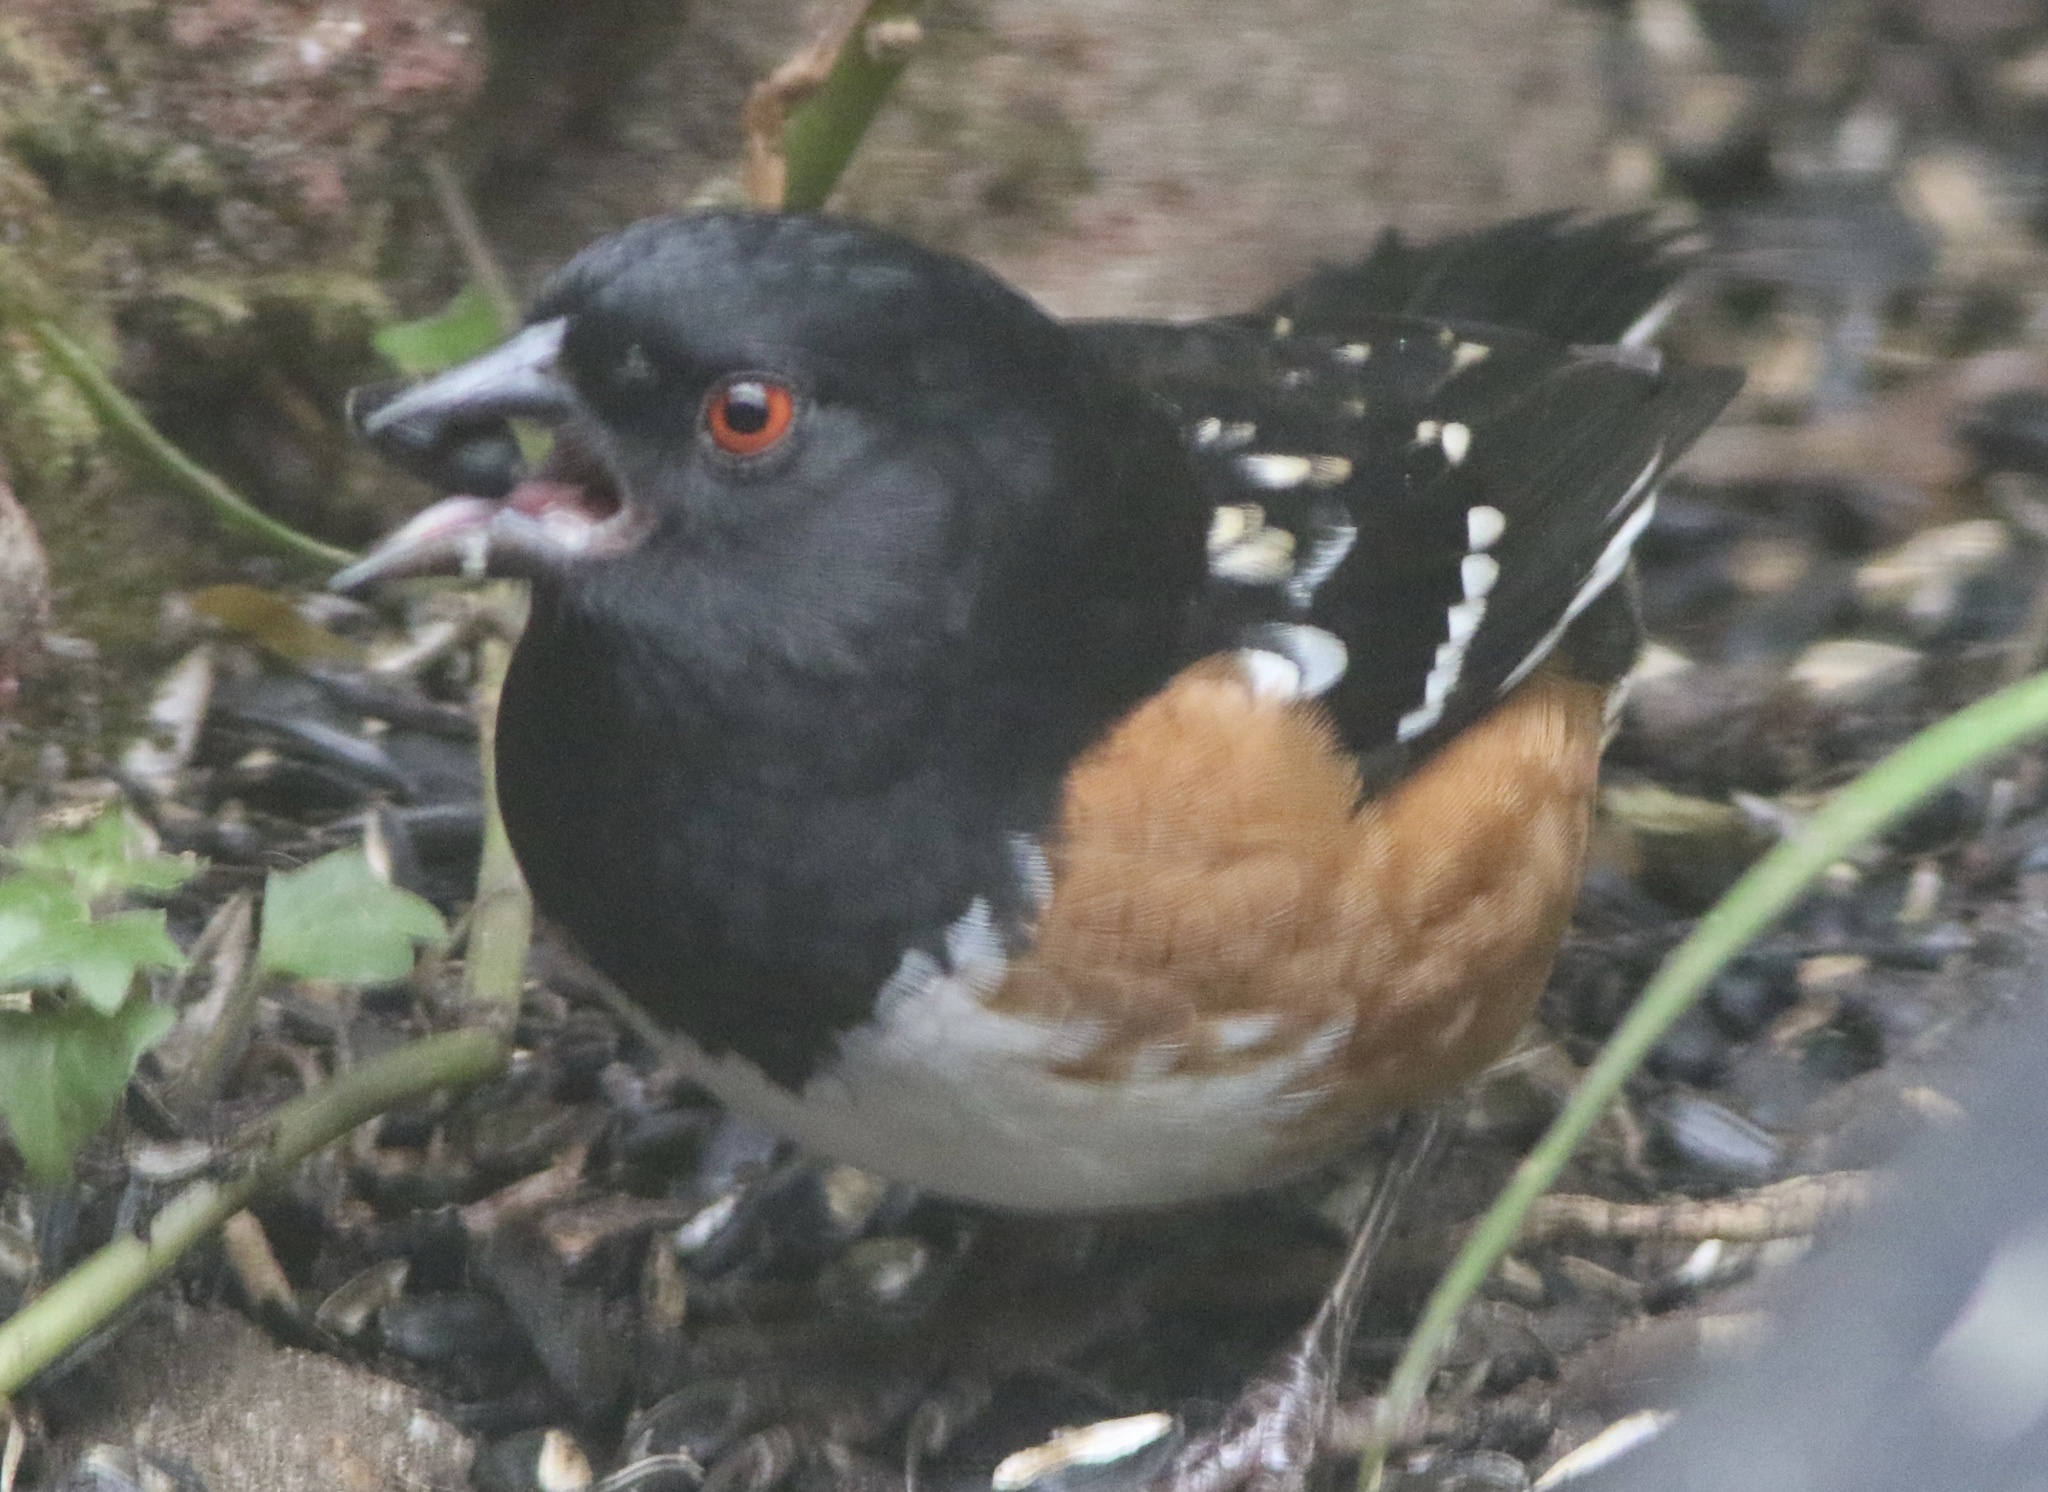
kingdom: Animalia
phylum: Chordata
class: Aves
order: Passeriformes
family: Passerellidae
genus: Pipilo
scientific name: Pipilo maculatus
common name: Spotted towhee
